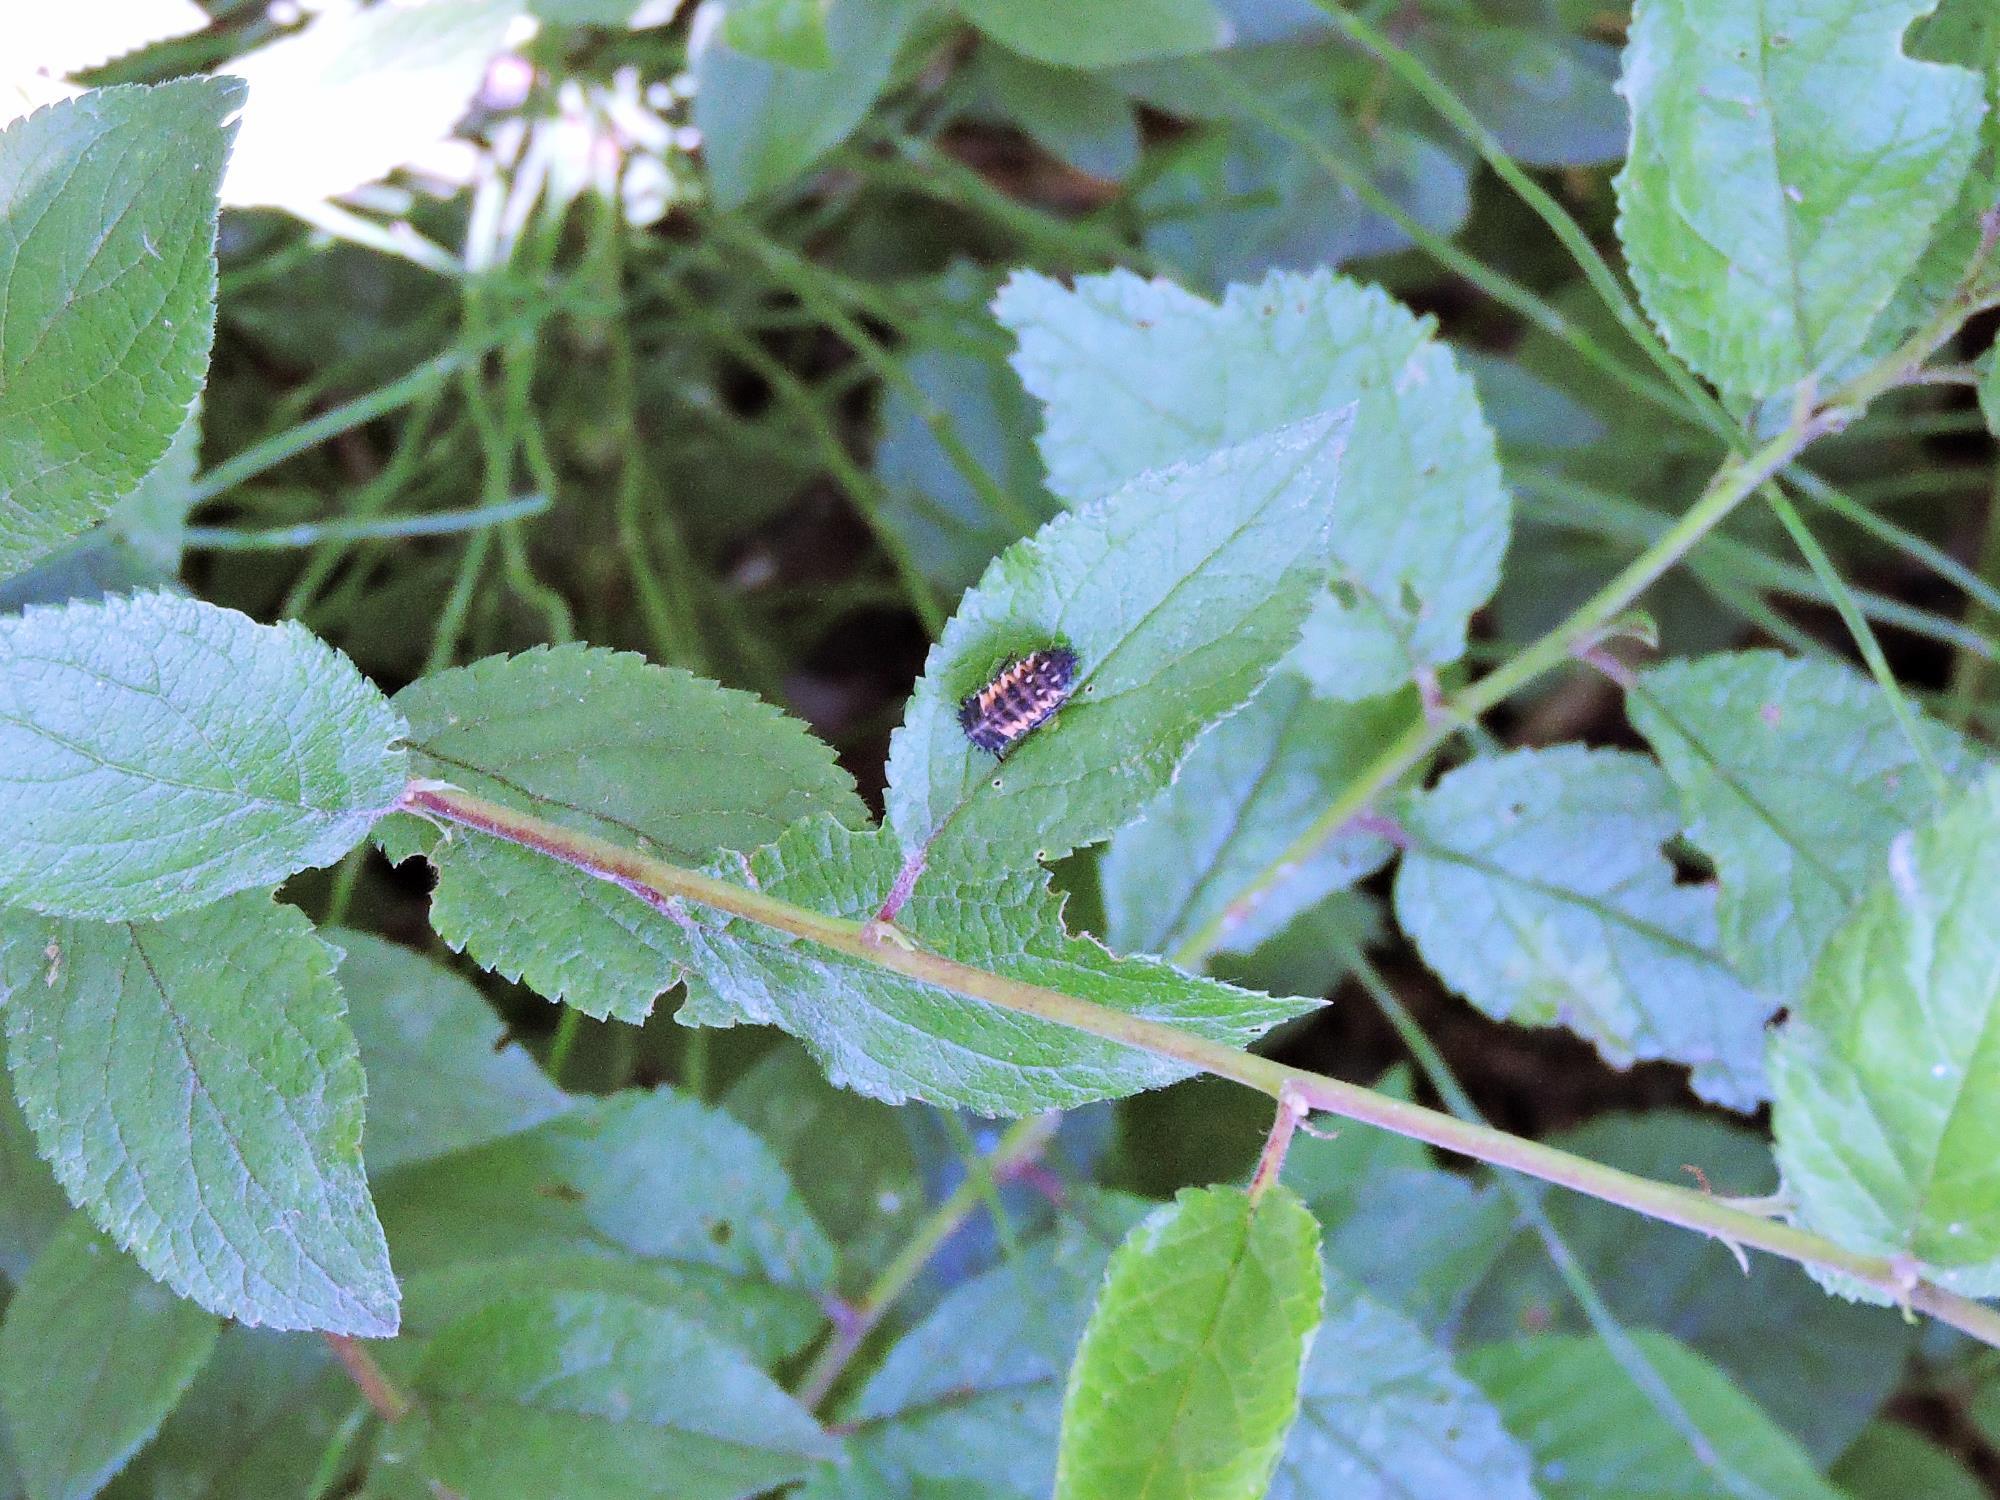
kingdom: Animalia
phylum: Arthropoda
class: Insecta
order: Coleoptera
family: Coccinellidae
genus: Harmonia
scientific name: Harmonia axyridis
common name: Harlequin ladybird
